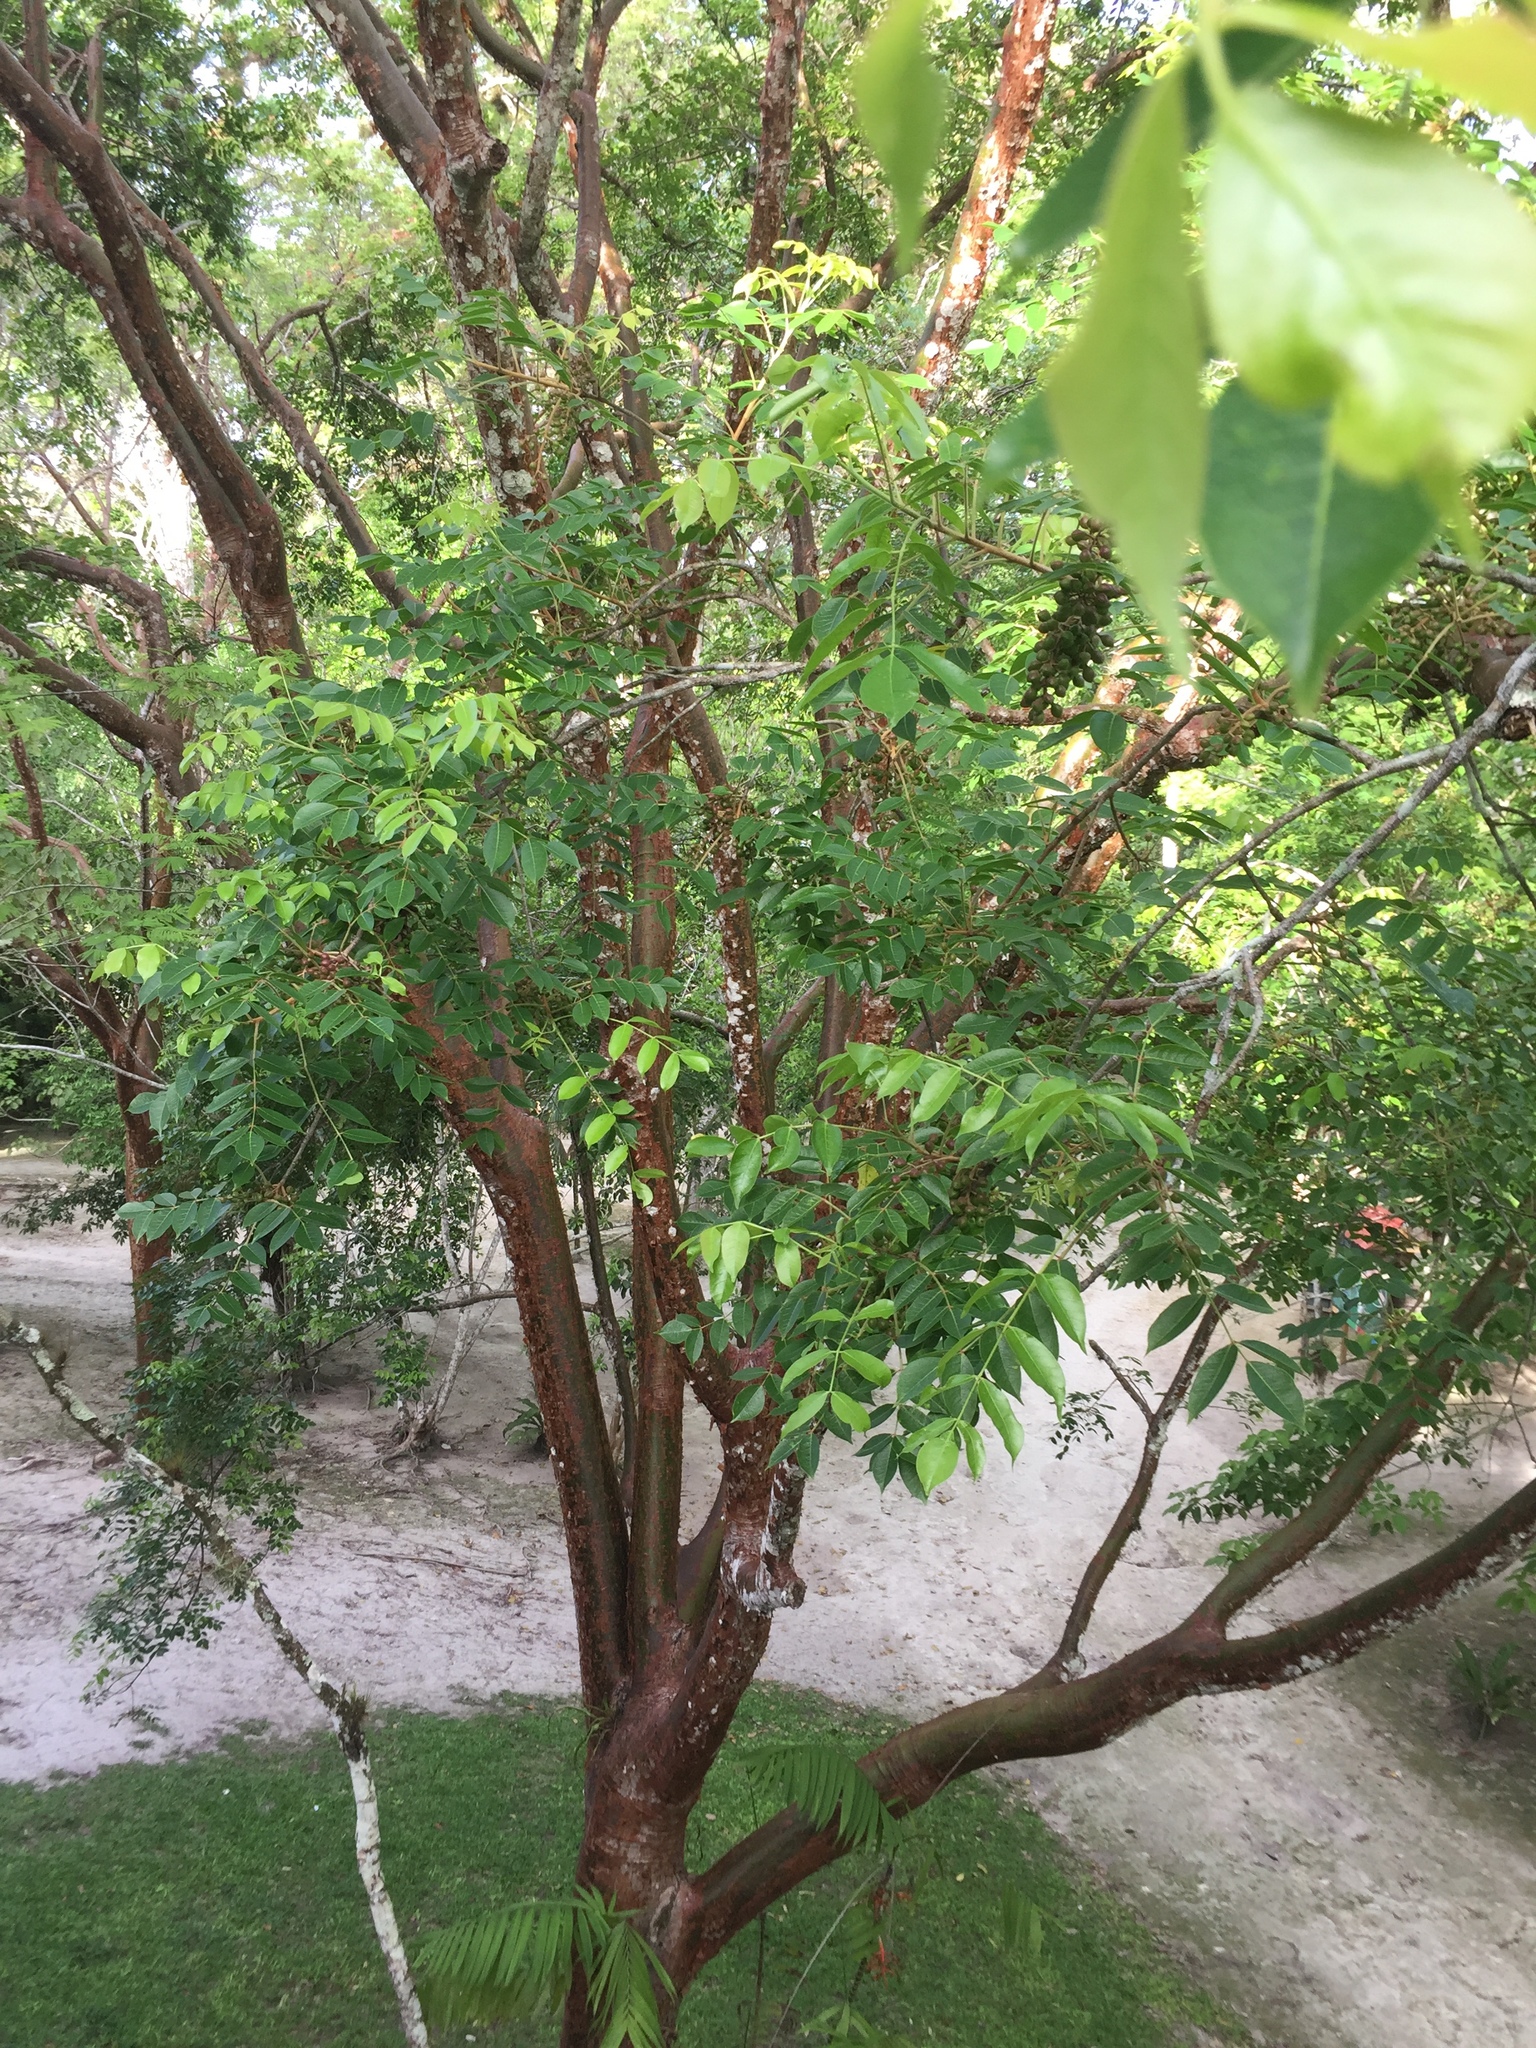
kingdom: Plantae
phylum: Tracheophyta
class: Magnoliopsida
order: Sapindales
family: Burseraceae
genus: Bursera
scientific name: Bursera simaruba
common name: Turpentine tree
